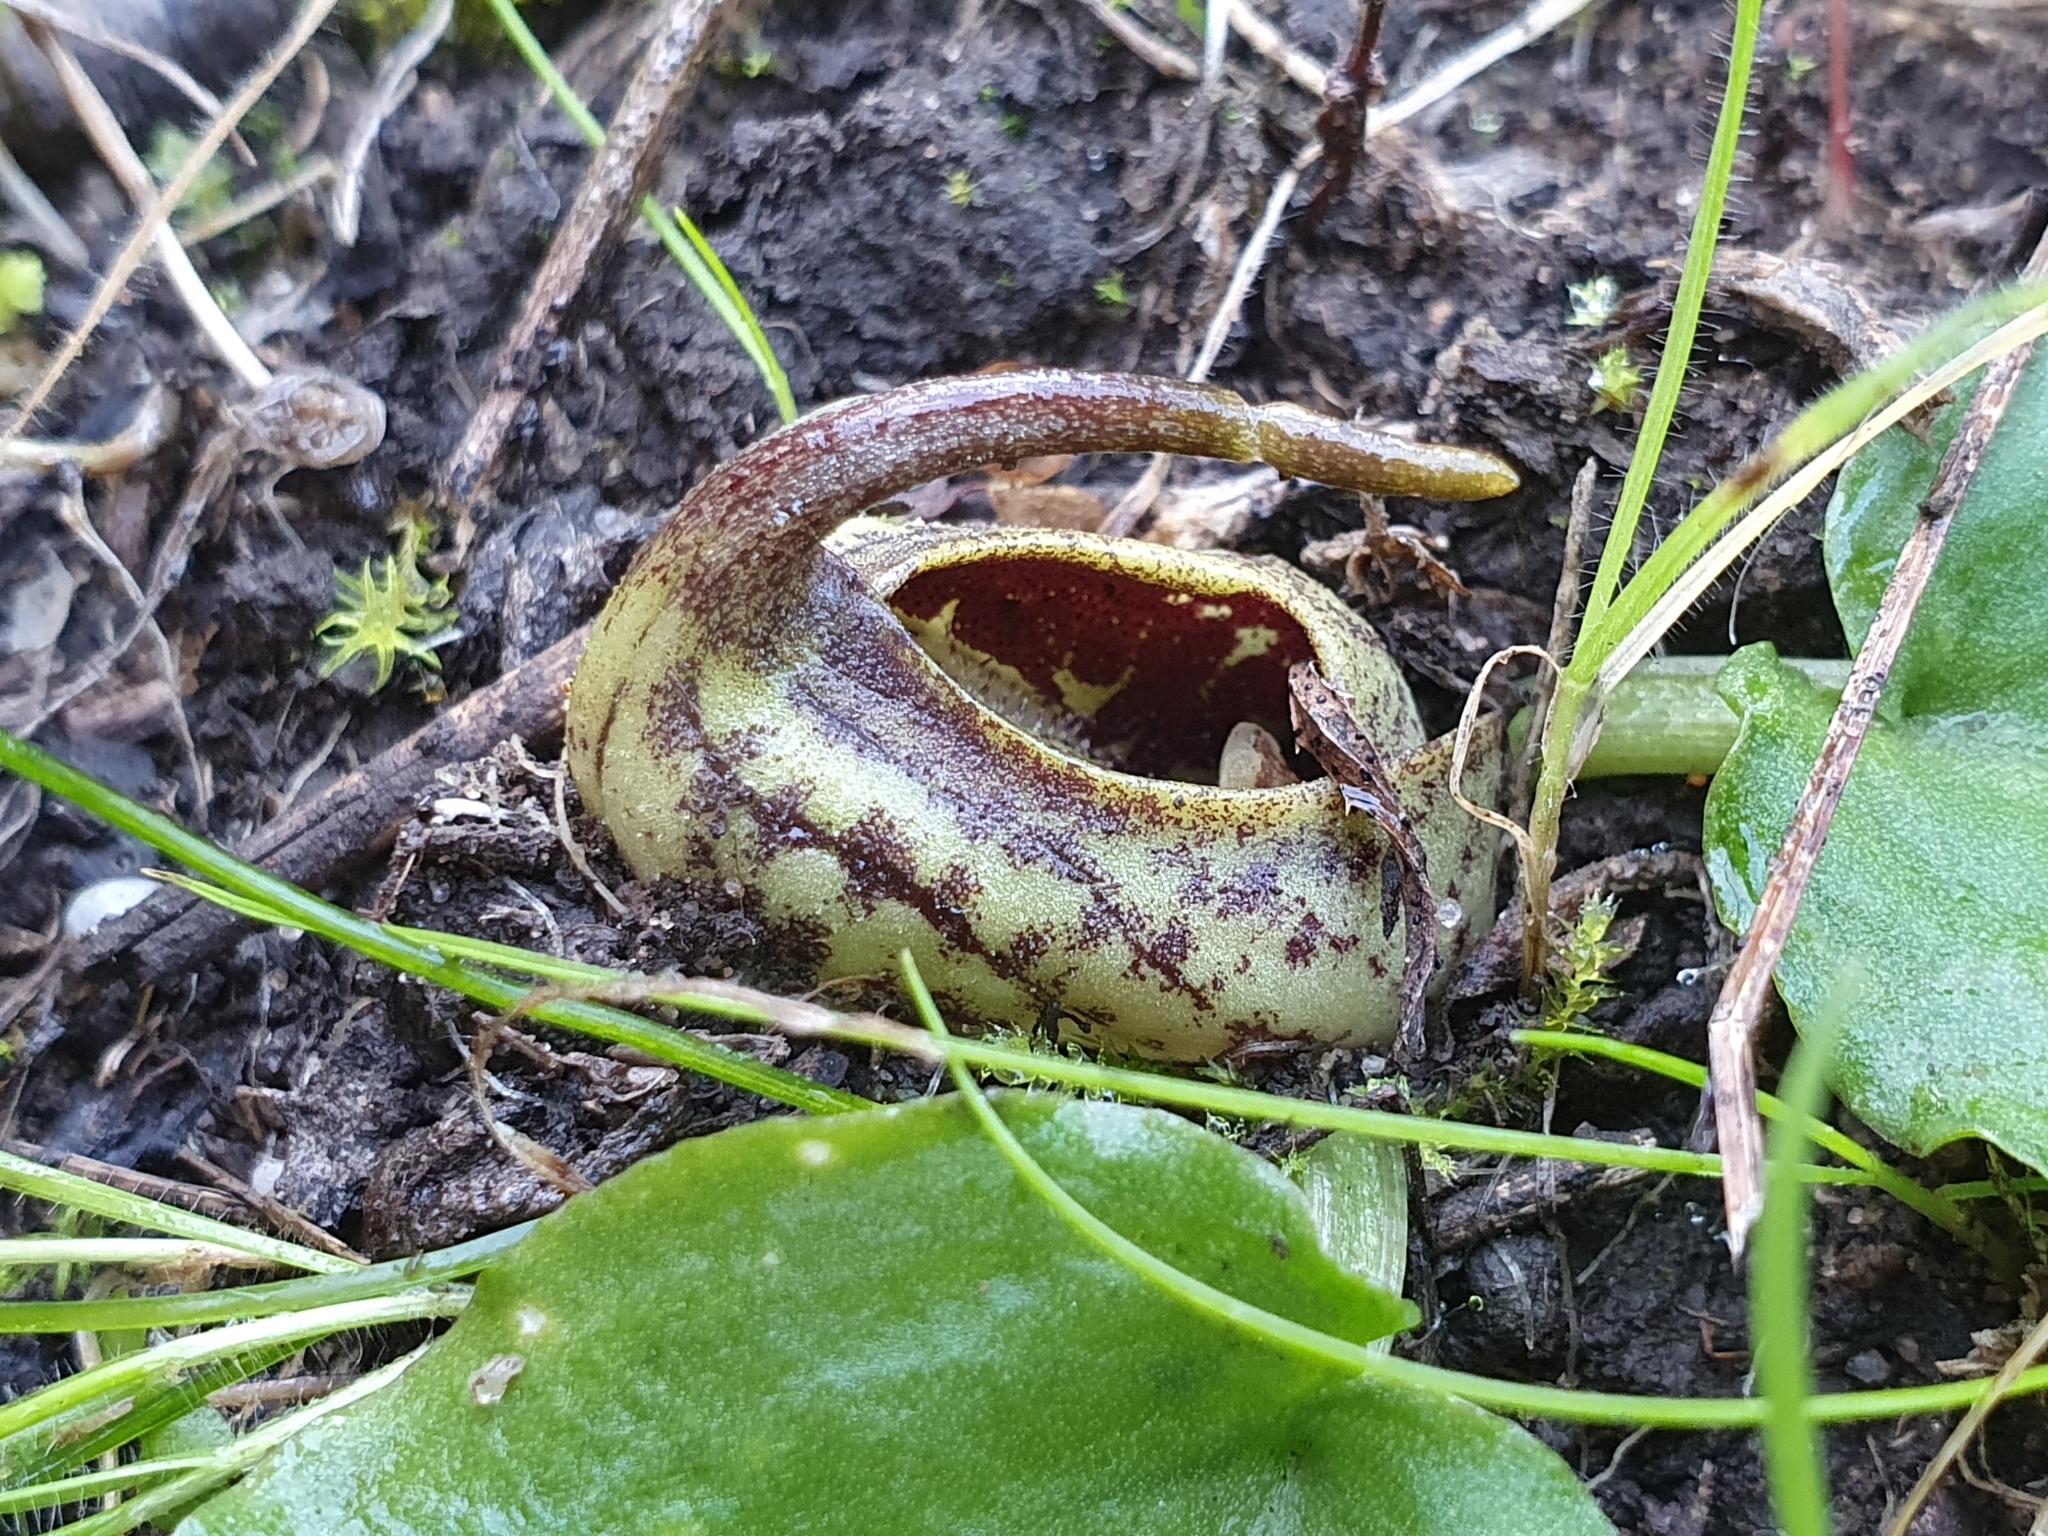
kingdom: Plantae
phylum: Tracheophyta
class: Liliopsida
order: Alismatales
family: Araceae
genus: Ambrosina
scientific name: Ambrosina bassii
